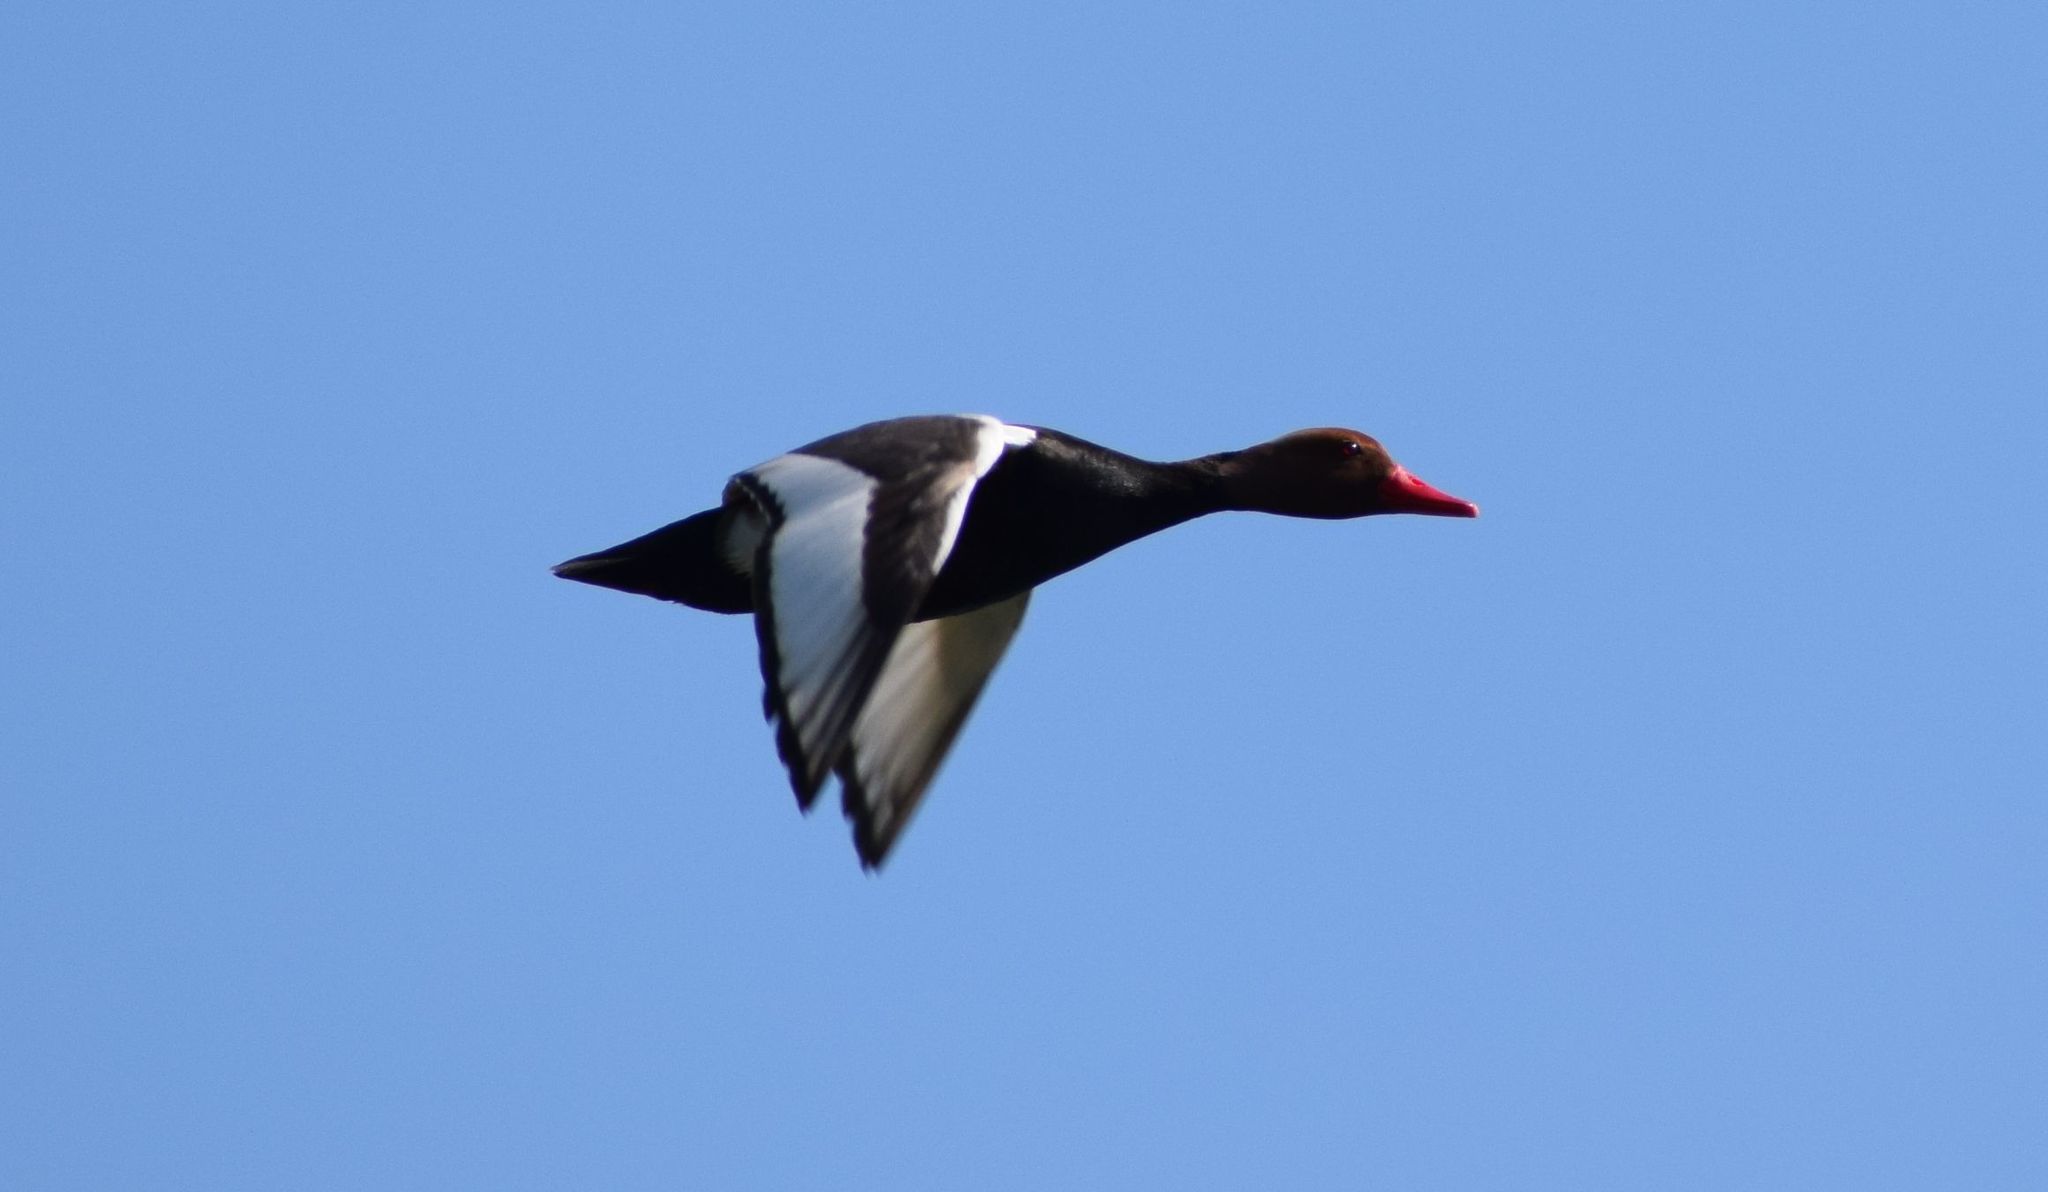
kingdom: Animalia
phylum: Chordata
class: Aves
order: Anseriformes
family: Anatidae
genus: Netta
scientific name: Netta rufina
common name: Red-crested pochard
